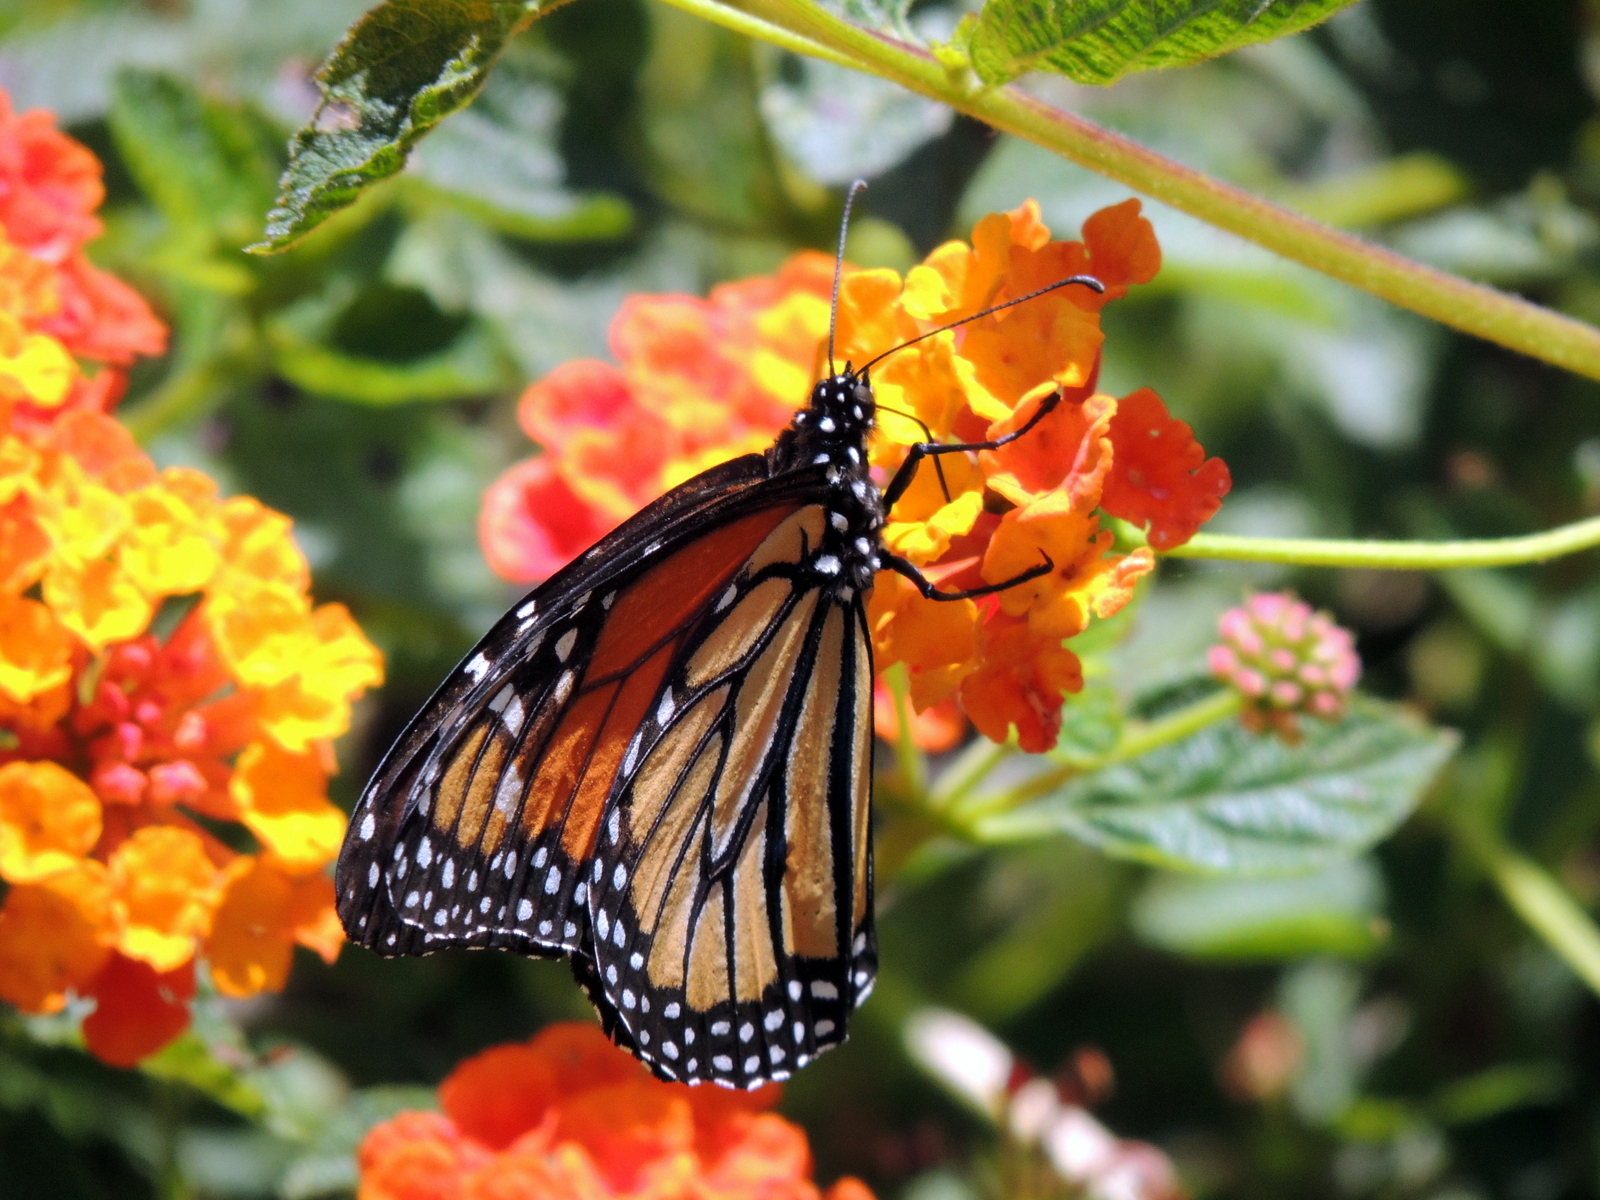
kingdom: Animalia
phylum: Arthropoda
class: Insecta
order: Lepidoptera
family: Nymphalidae
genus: Danaus
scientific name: Danaus plexippus
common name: Monarch
